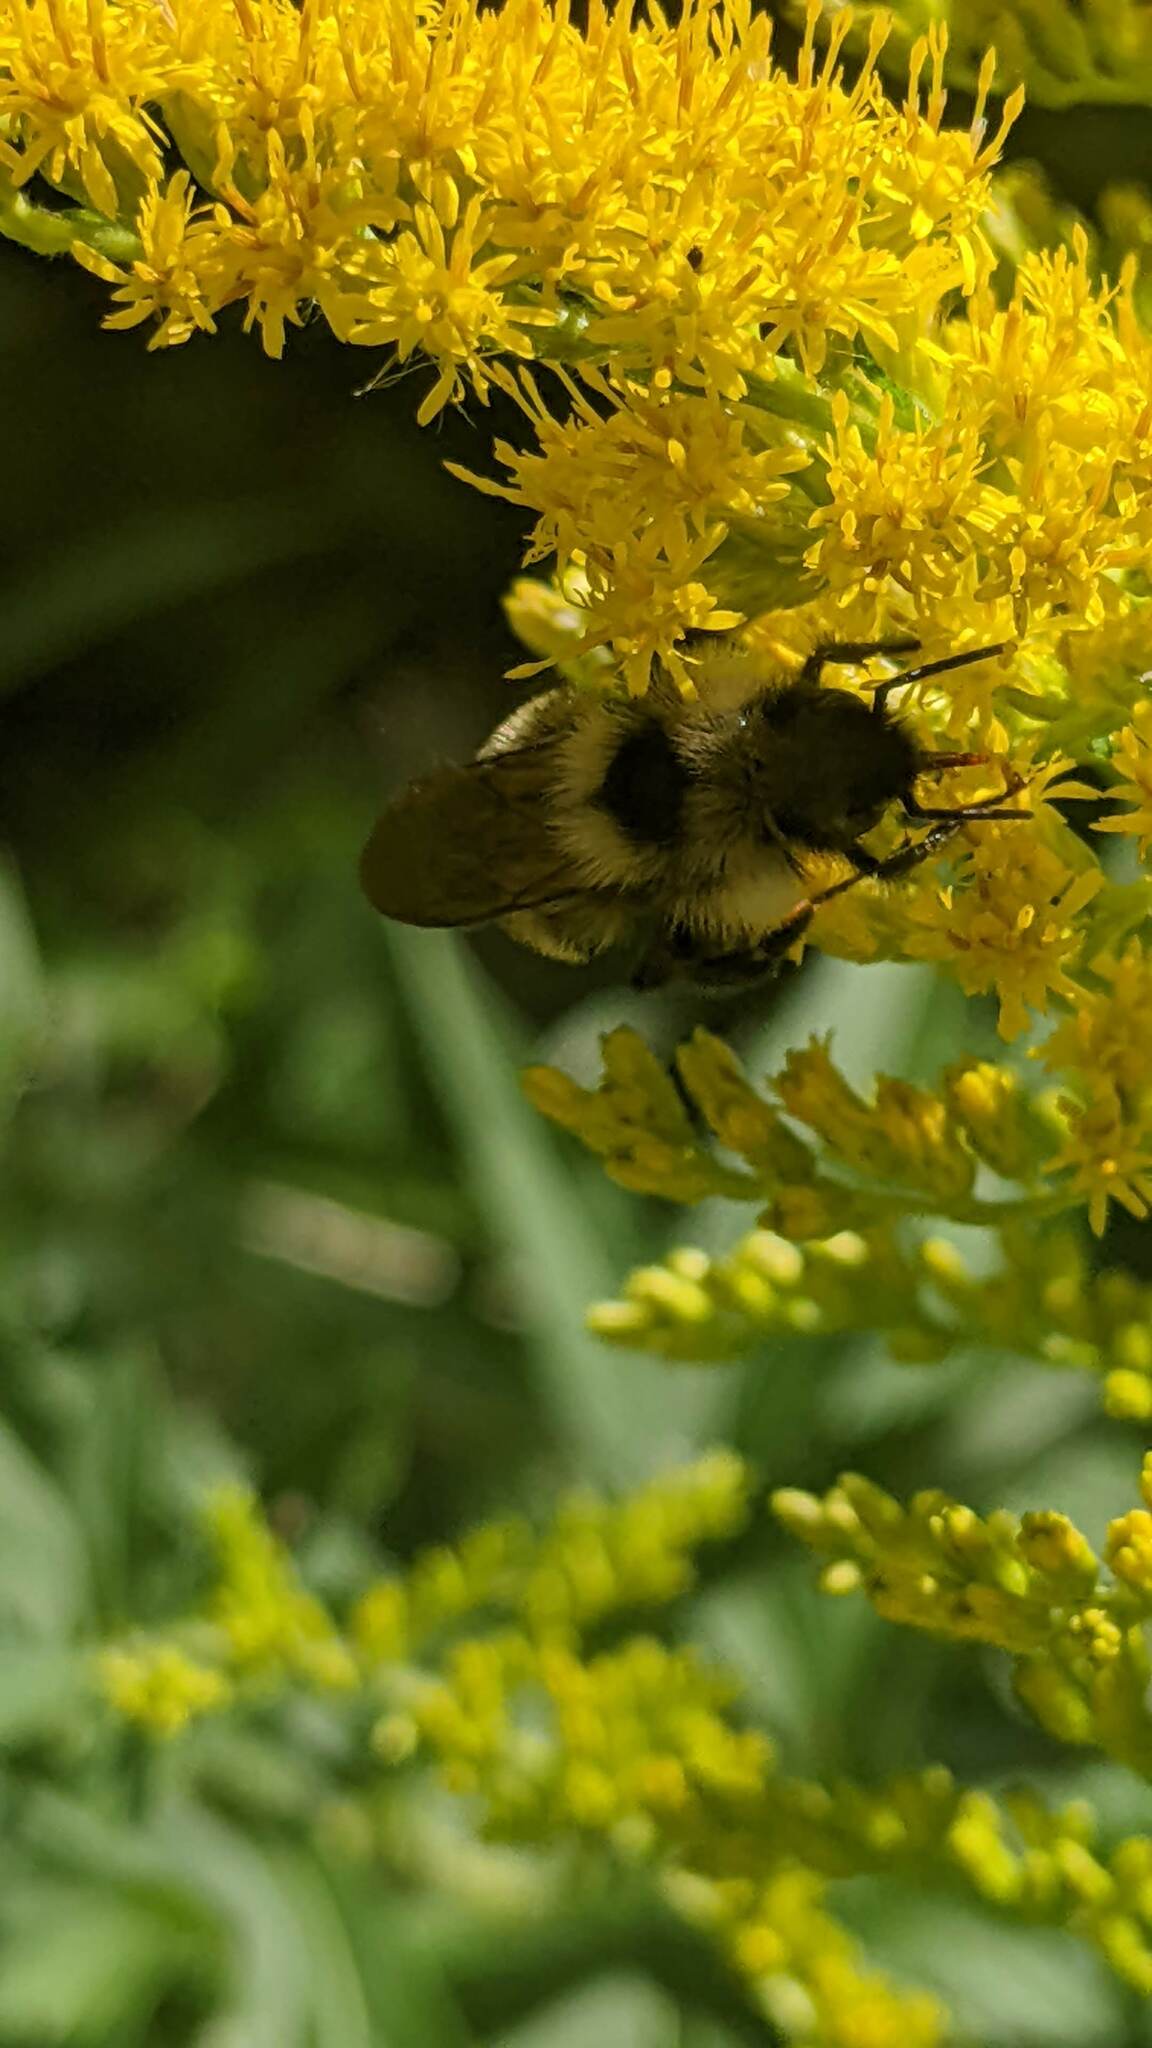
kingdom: Animalia
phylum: Arthropoda
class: Insecta
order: Hymenoptera
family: Apidae
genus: Bombus
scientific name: Bombus citrinus
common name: Lemon cuckoo bumble bee
